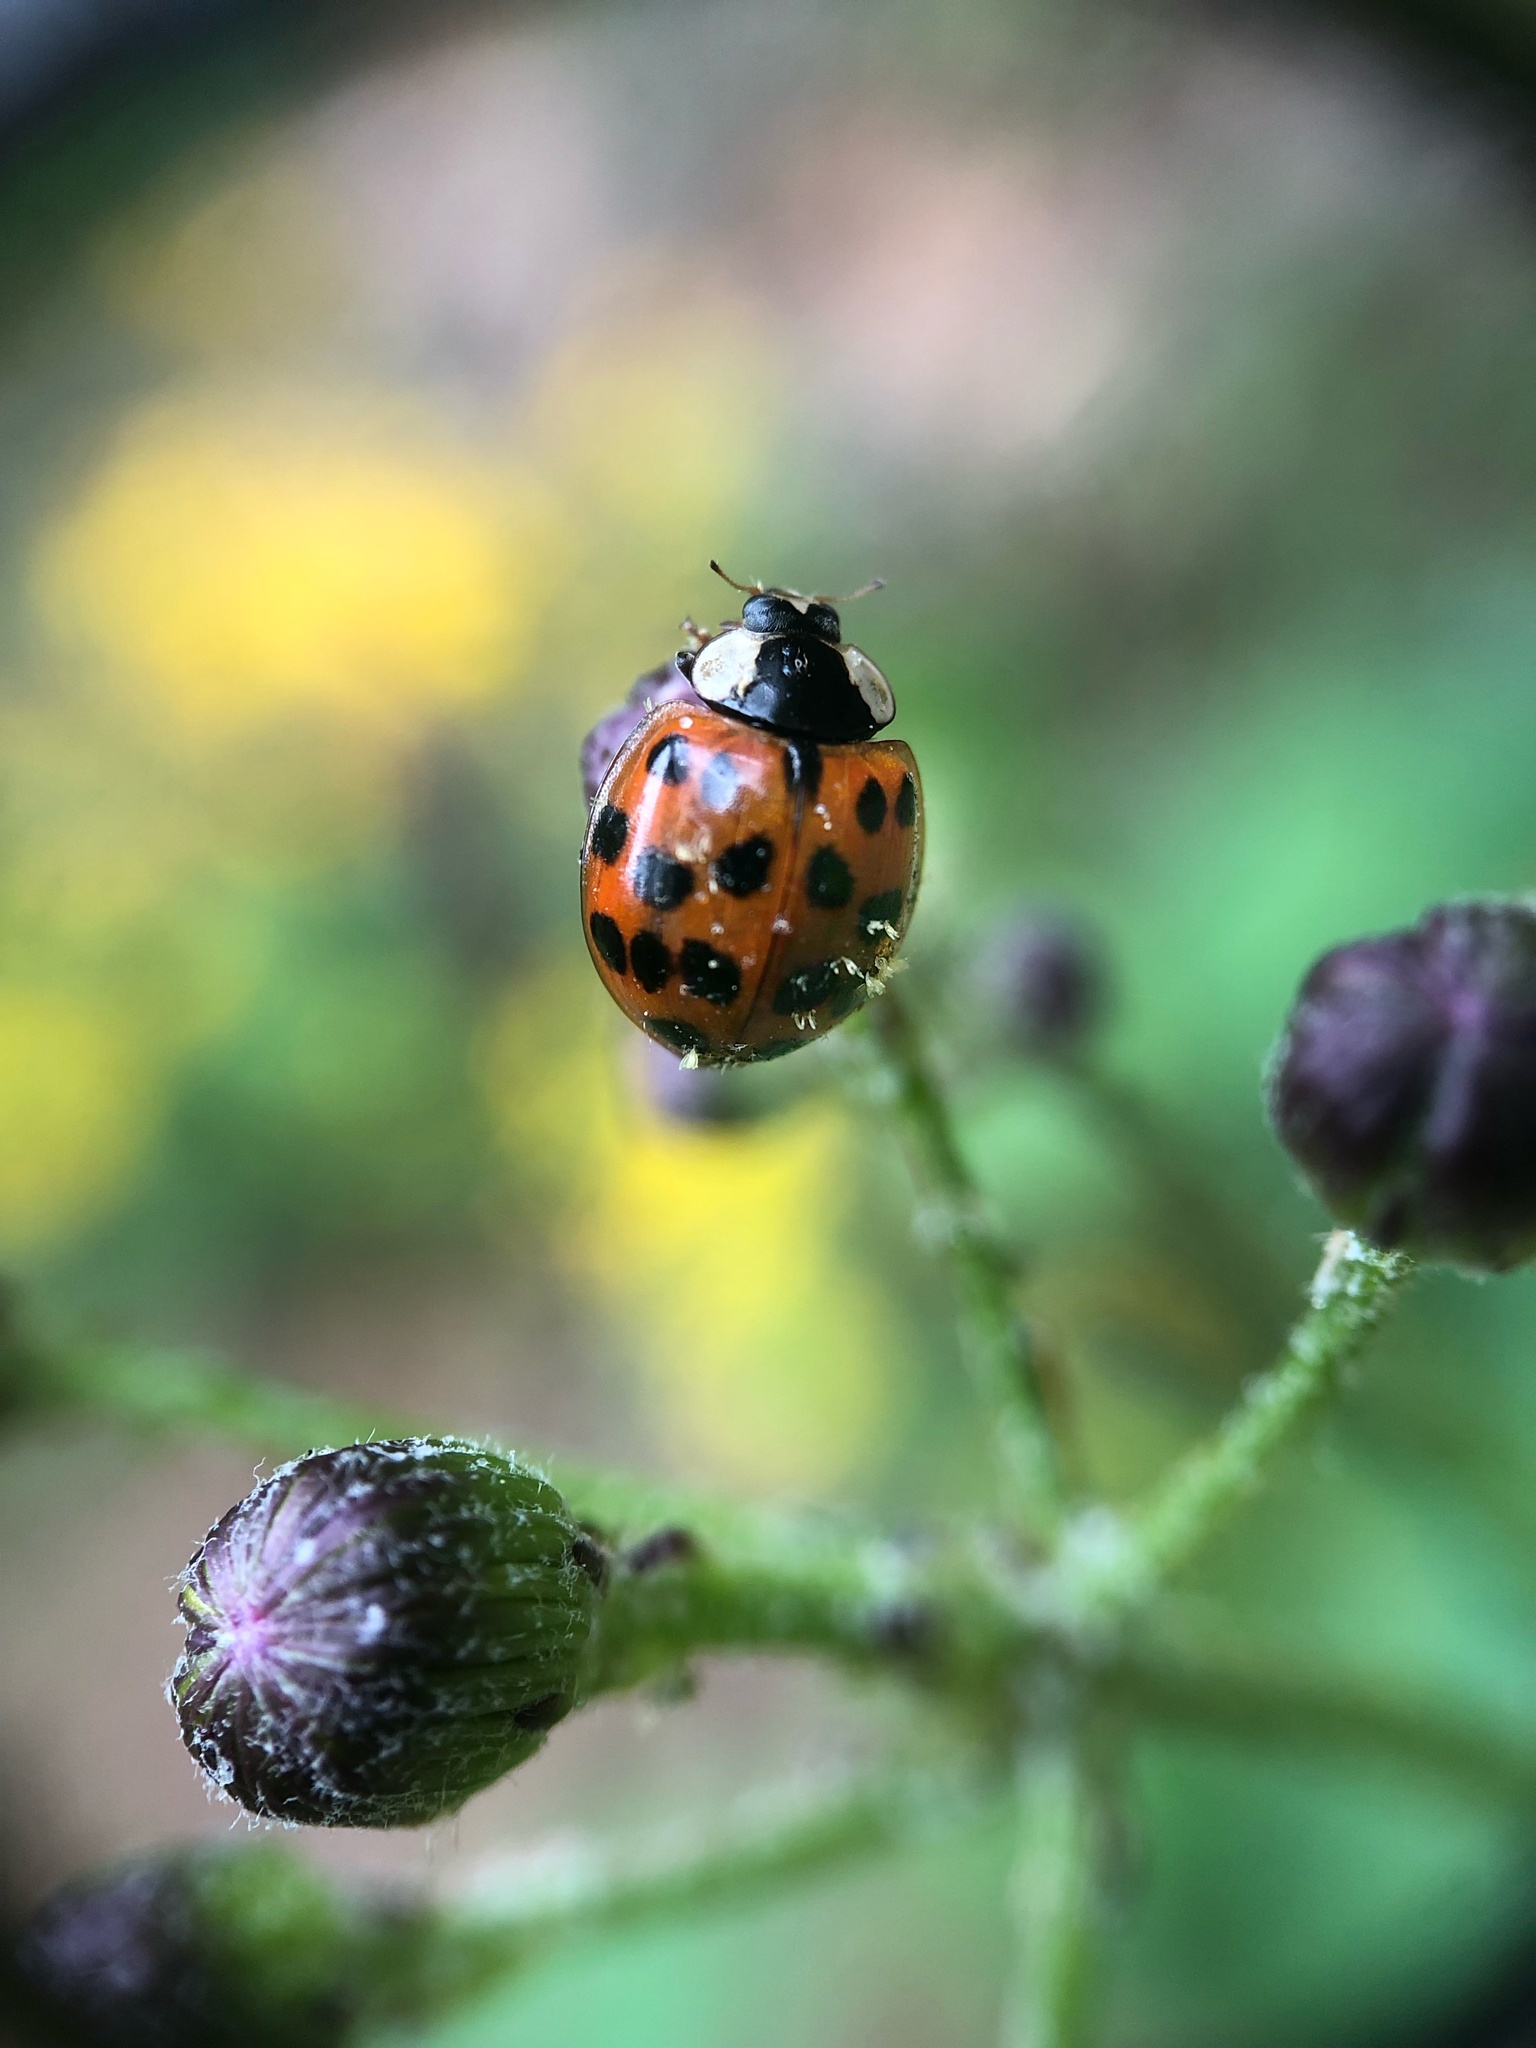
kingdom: Animalia
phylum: Arthropoda
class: Insecta
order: Coleoptera
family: Coccinellidae
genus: Harmonia
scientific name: Harmonia axyridis
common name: Harlequin ladybird
